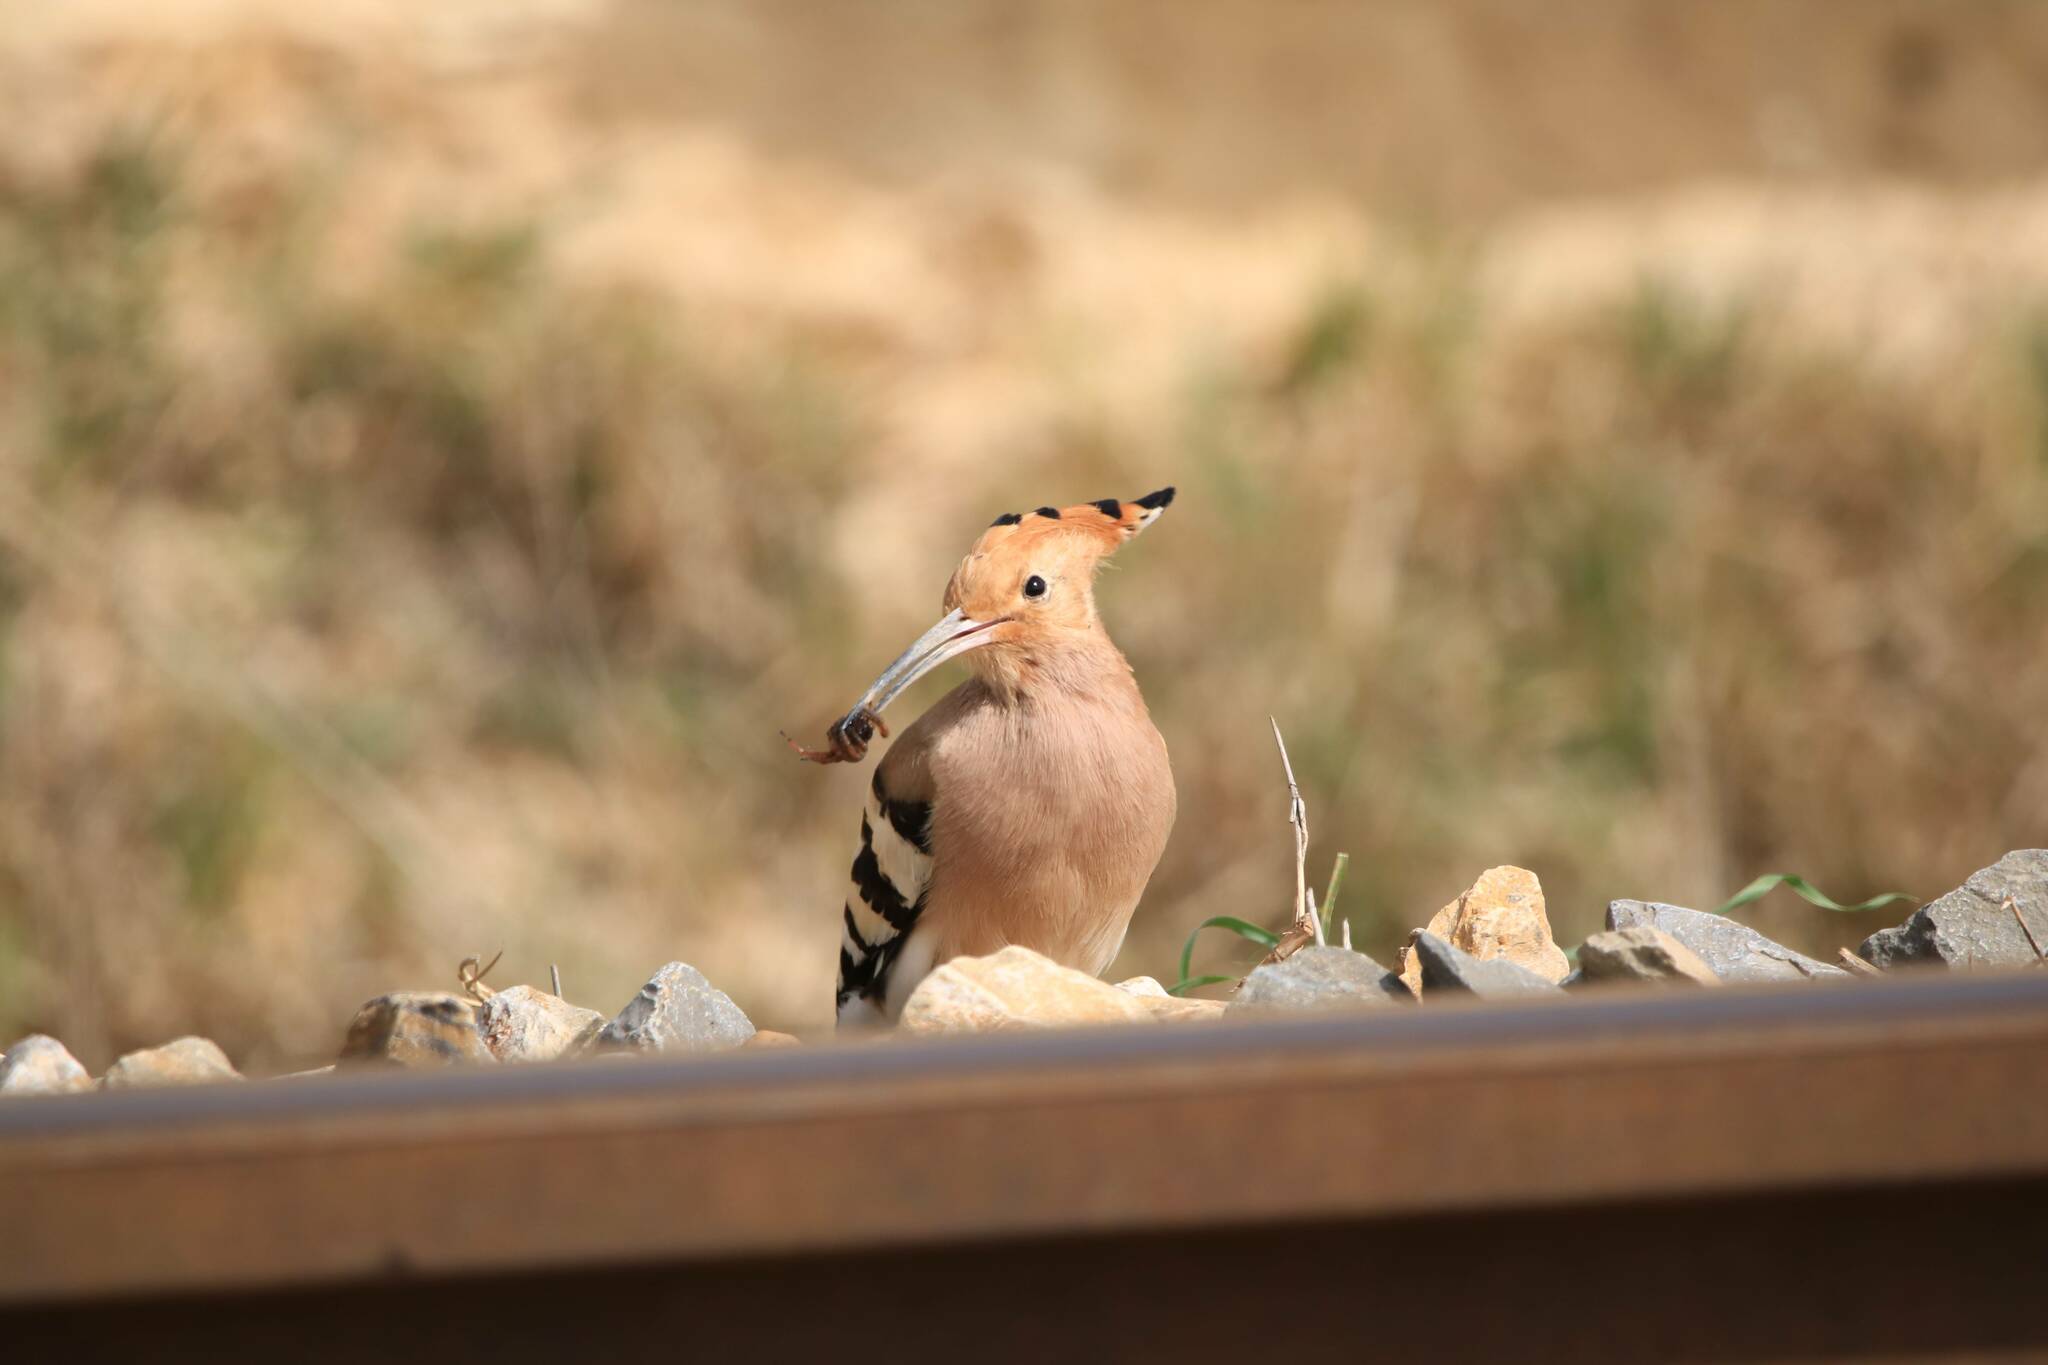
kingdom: Animalia
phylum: Chordata
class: Aves
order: Bucerotiformes
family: Upupidae
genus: Upupa
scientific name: Upupa epops
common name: Eurasian hoopoe
